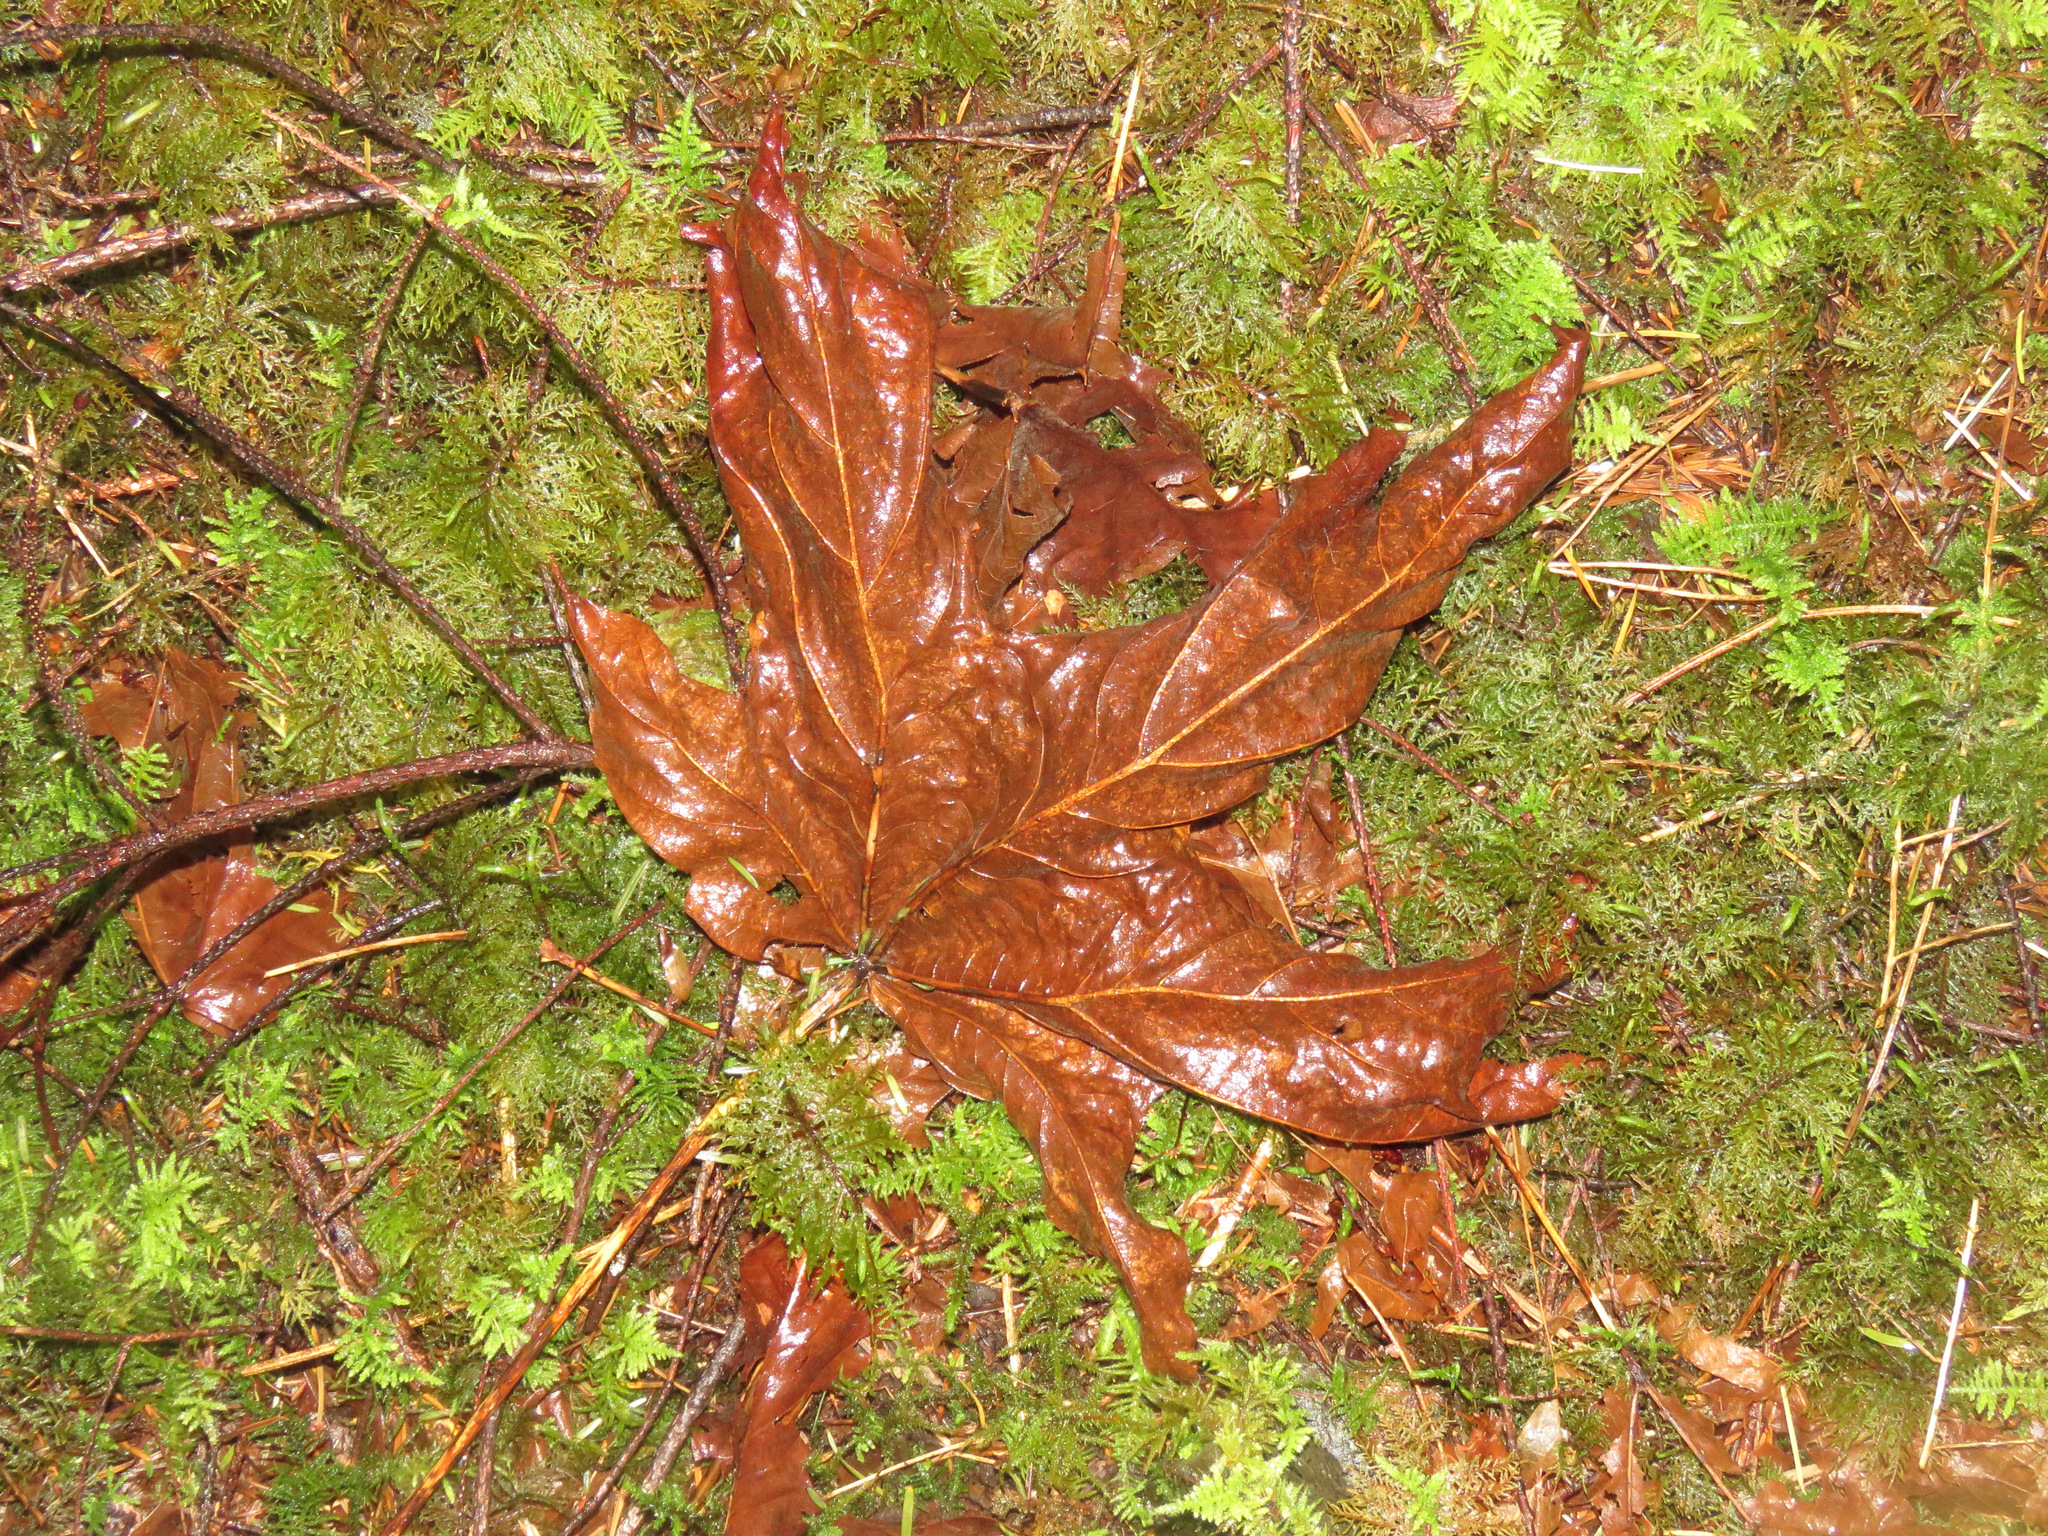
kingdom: Plantae
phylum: Tracheophyta
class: Magnoliopsida
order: Sapindales
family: Sapindaceae
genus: Acer
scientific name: Acer macrophyllum
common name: Oregon maple
